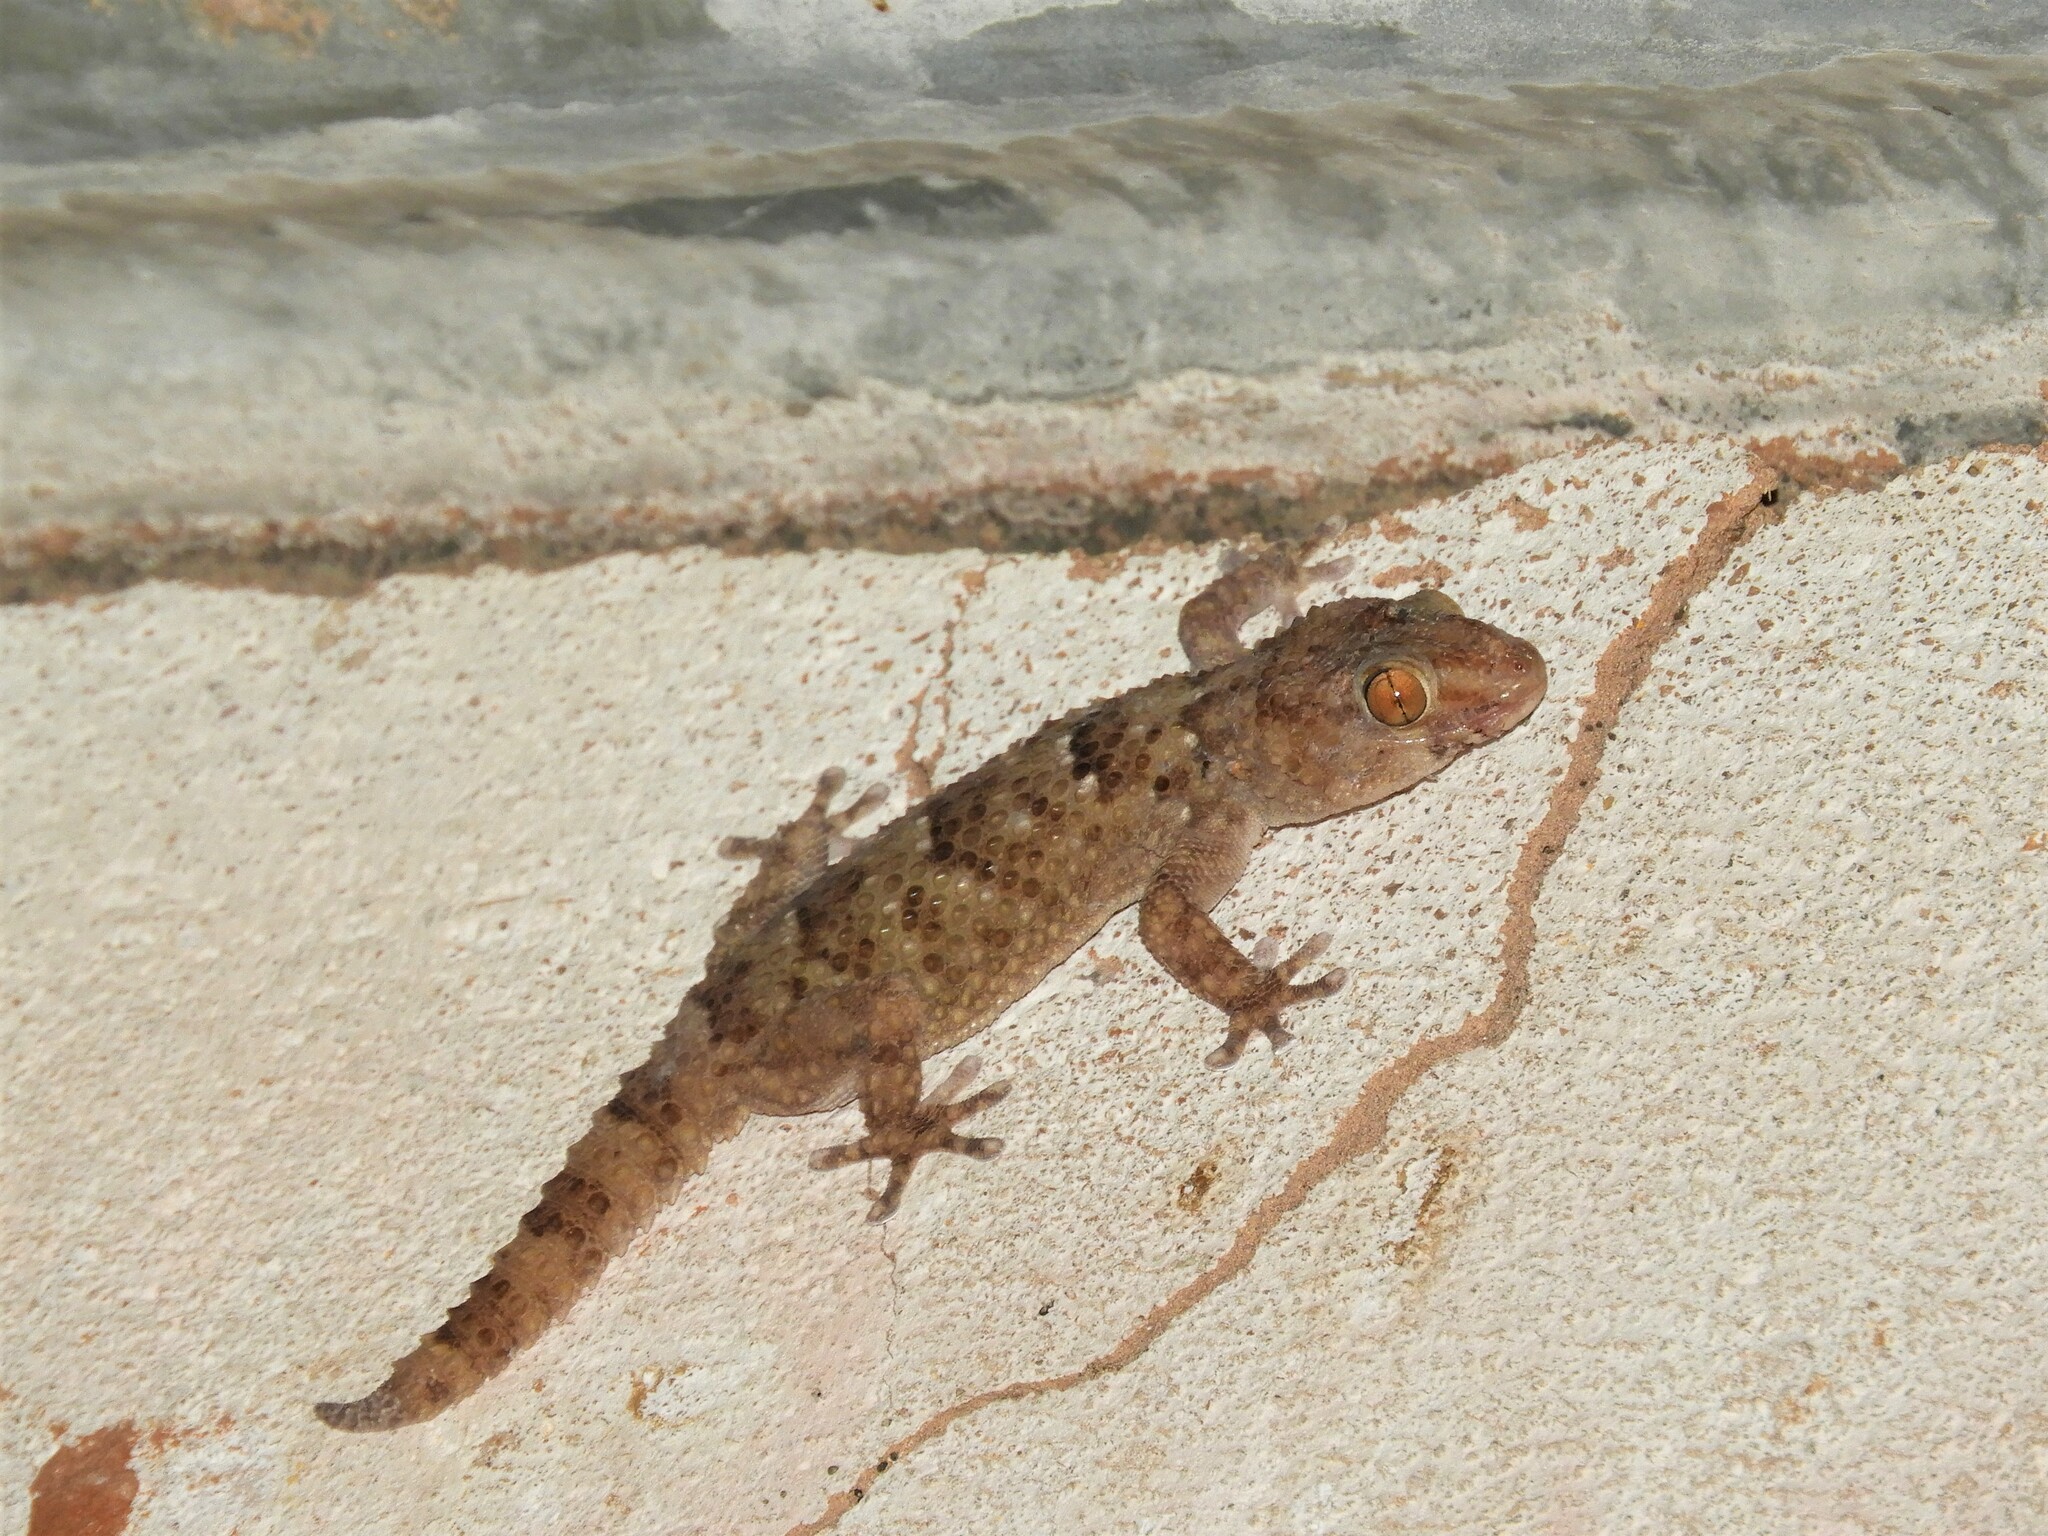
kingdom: Animalia
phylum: Chordata
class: Squamata
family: Gekkonidae
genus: Chondrodactylus
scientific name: Chondrodactylus laevigatus
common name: Fischer's thick-toed gecko
